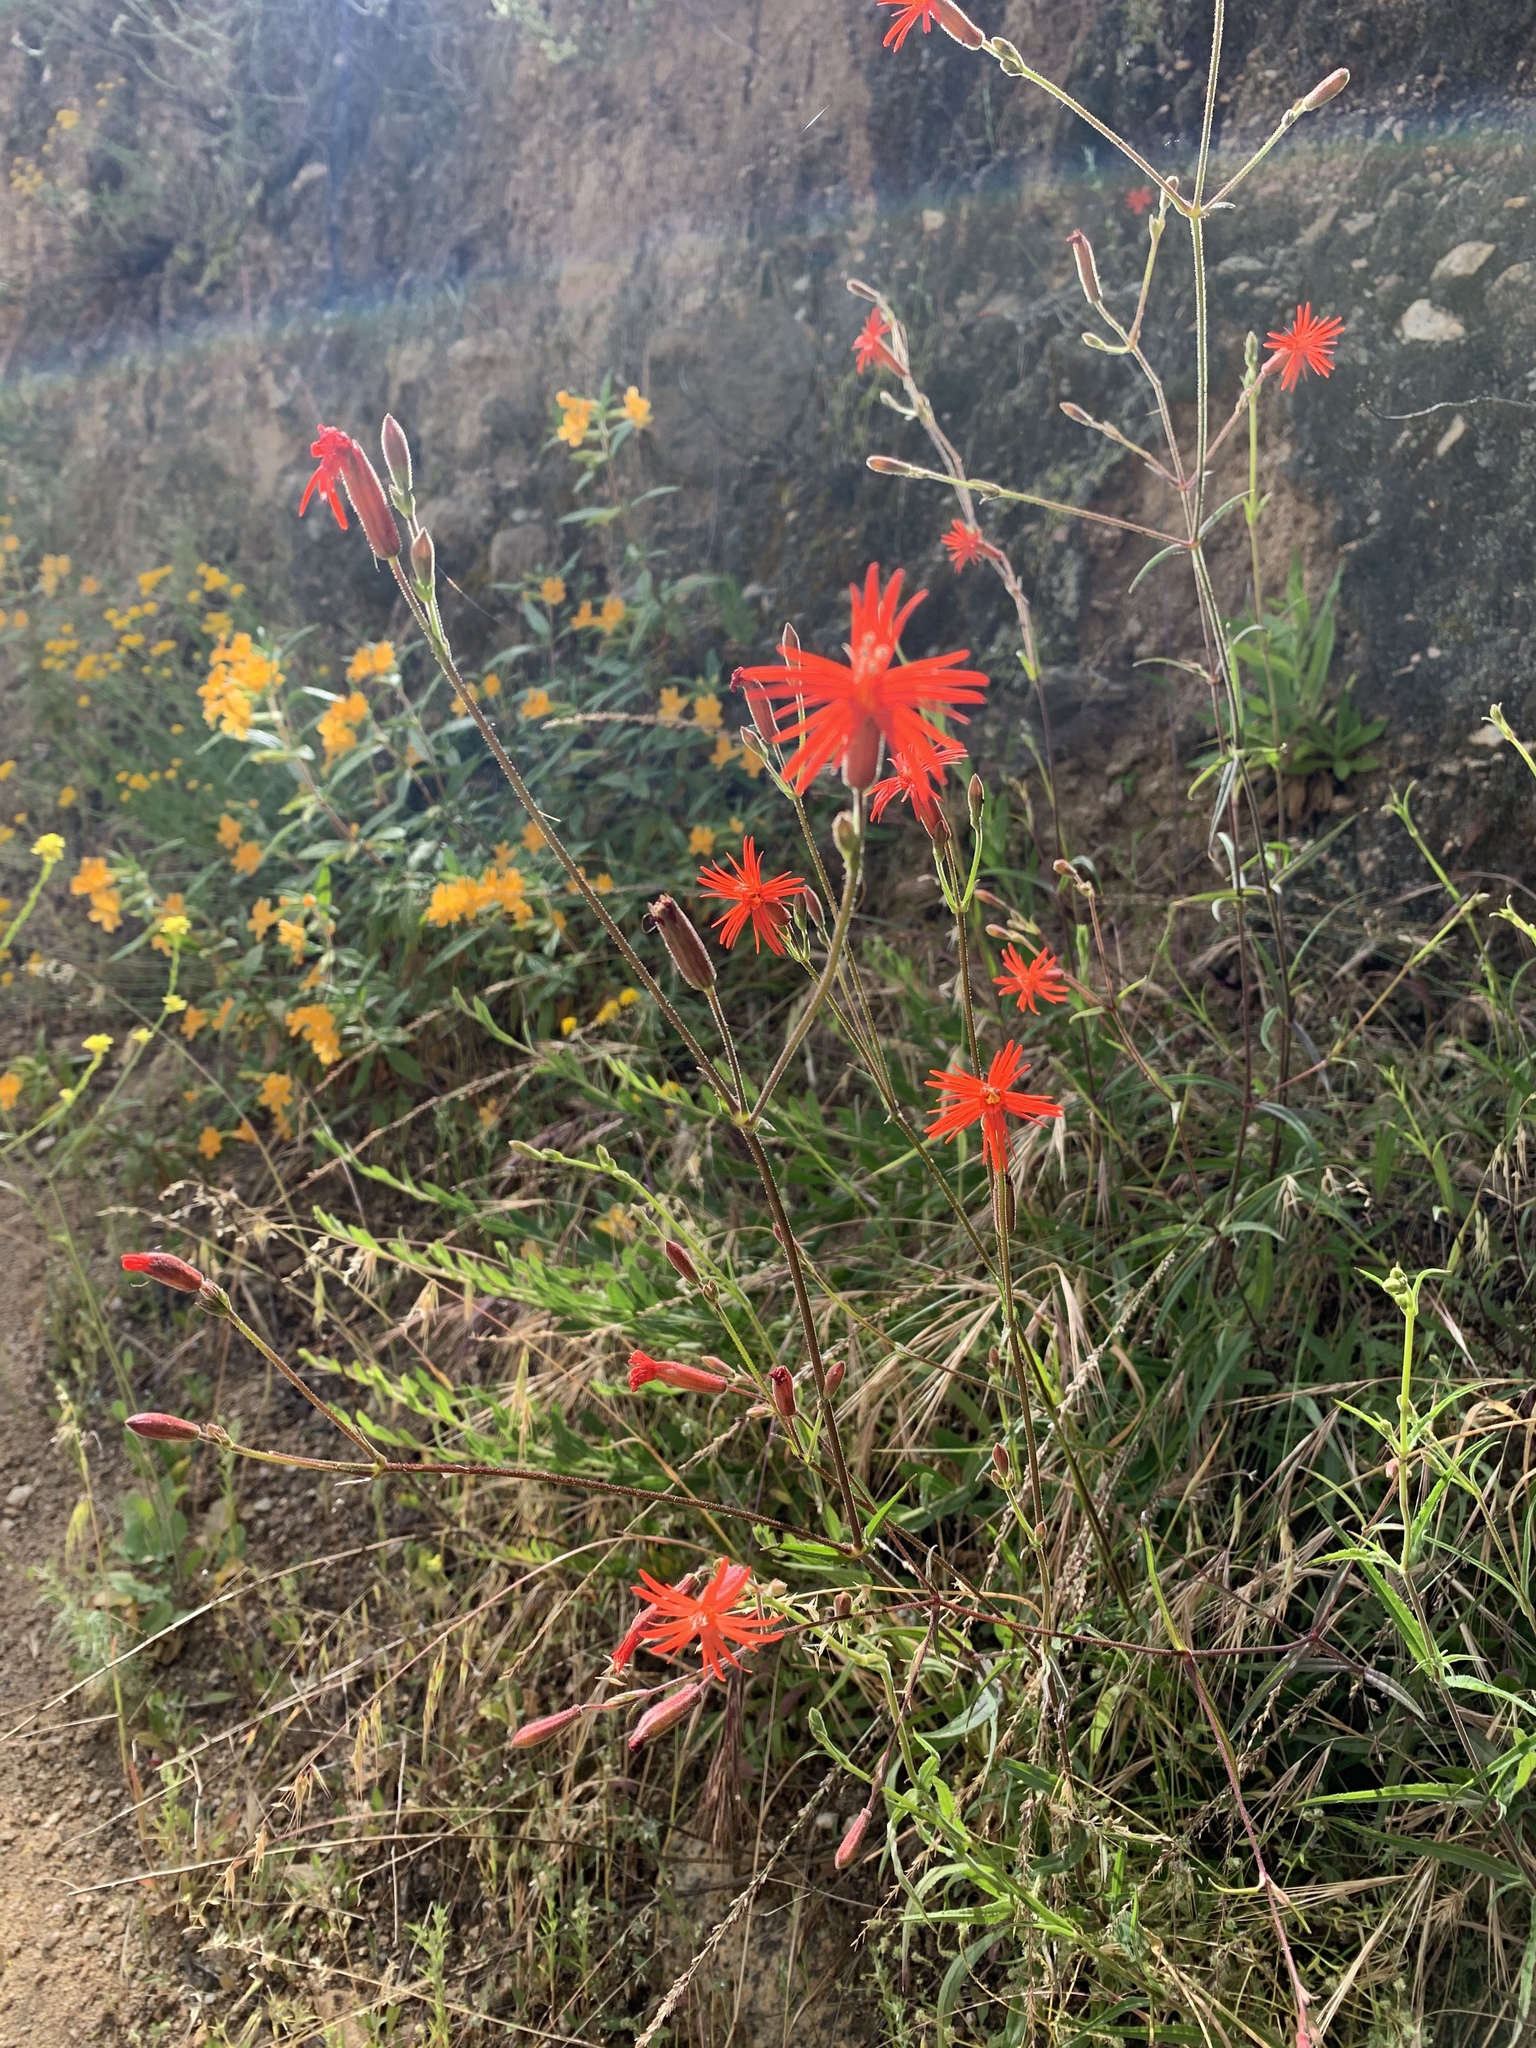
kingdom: Plantae
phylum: Tracheophyta
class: Magnoliopsida
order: Caryophyllales
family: Caryophyllaceae
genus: Silene
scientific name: Silene laciniata
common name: Indian-pink
